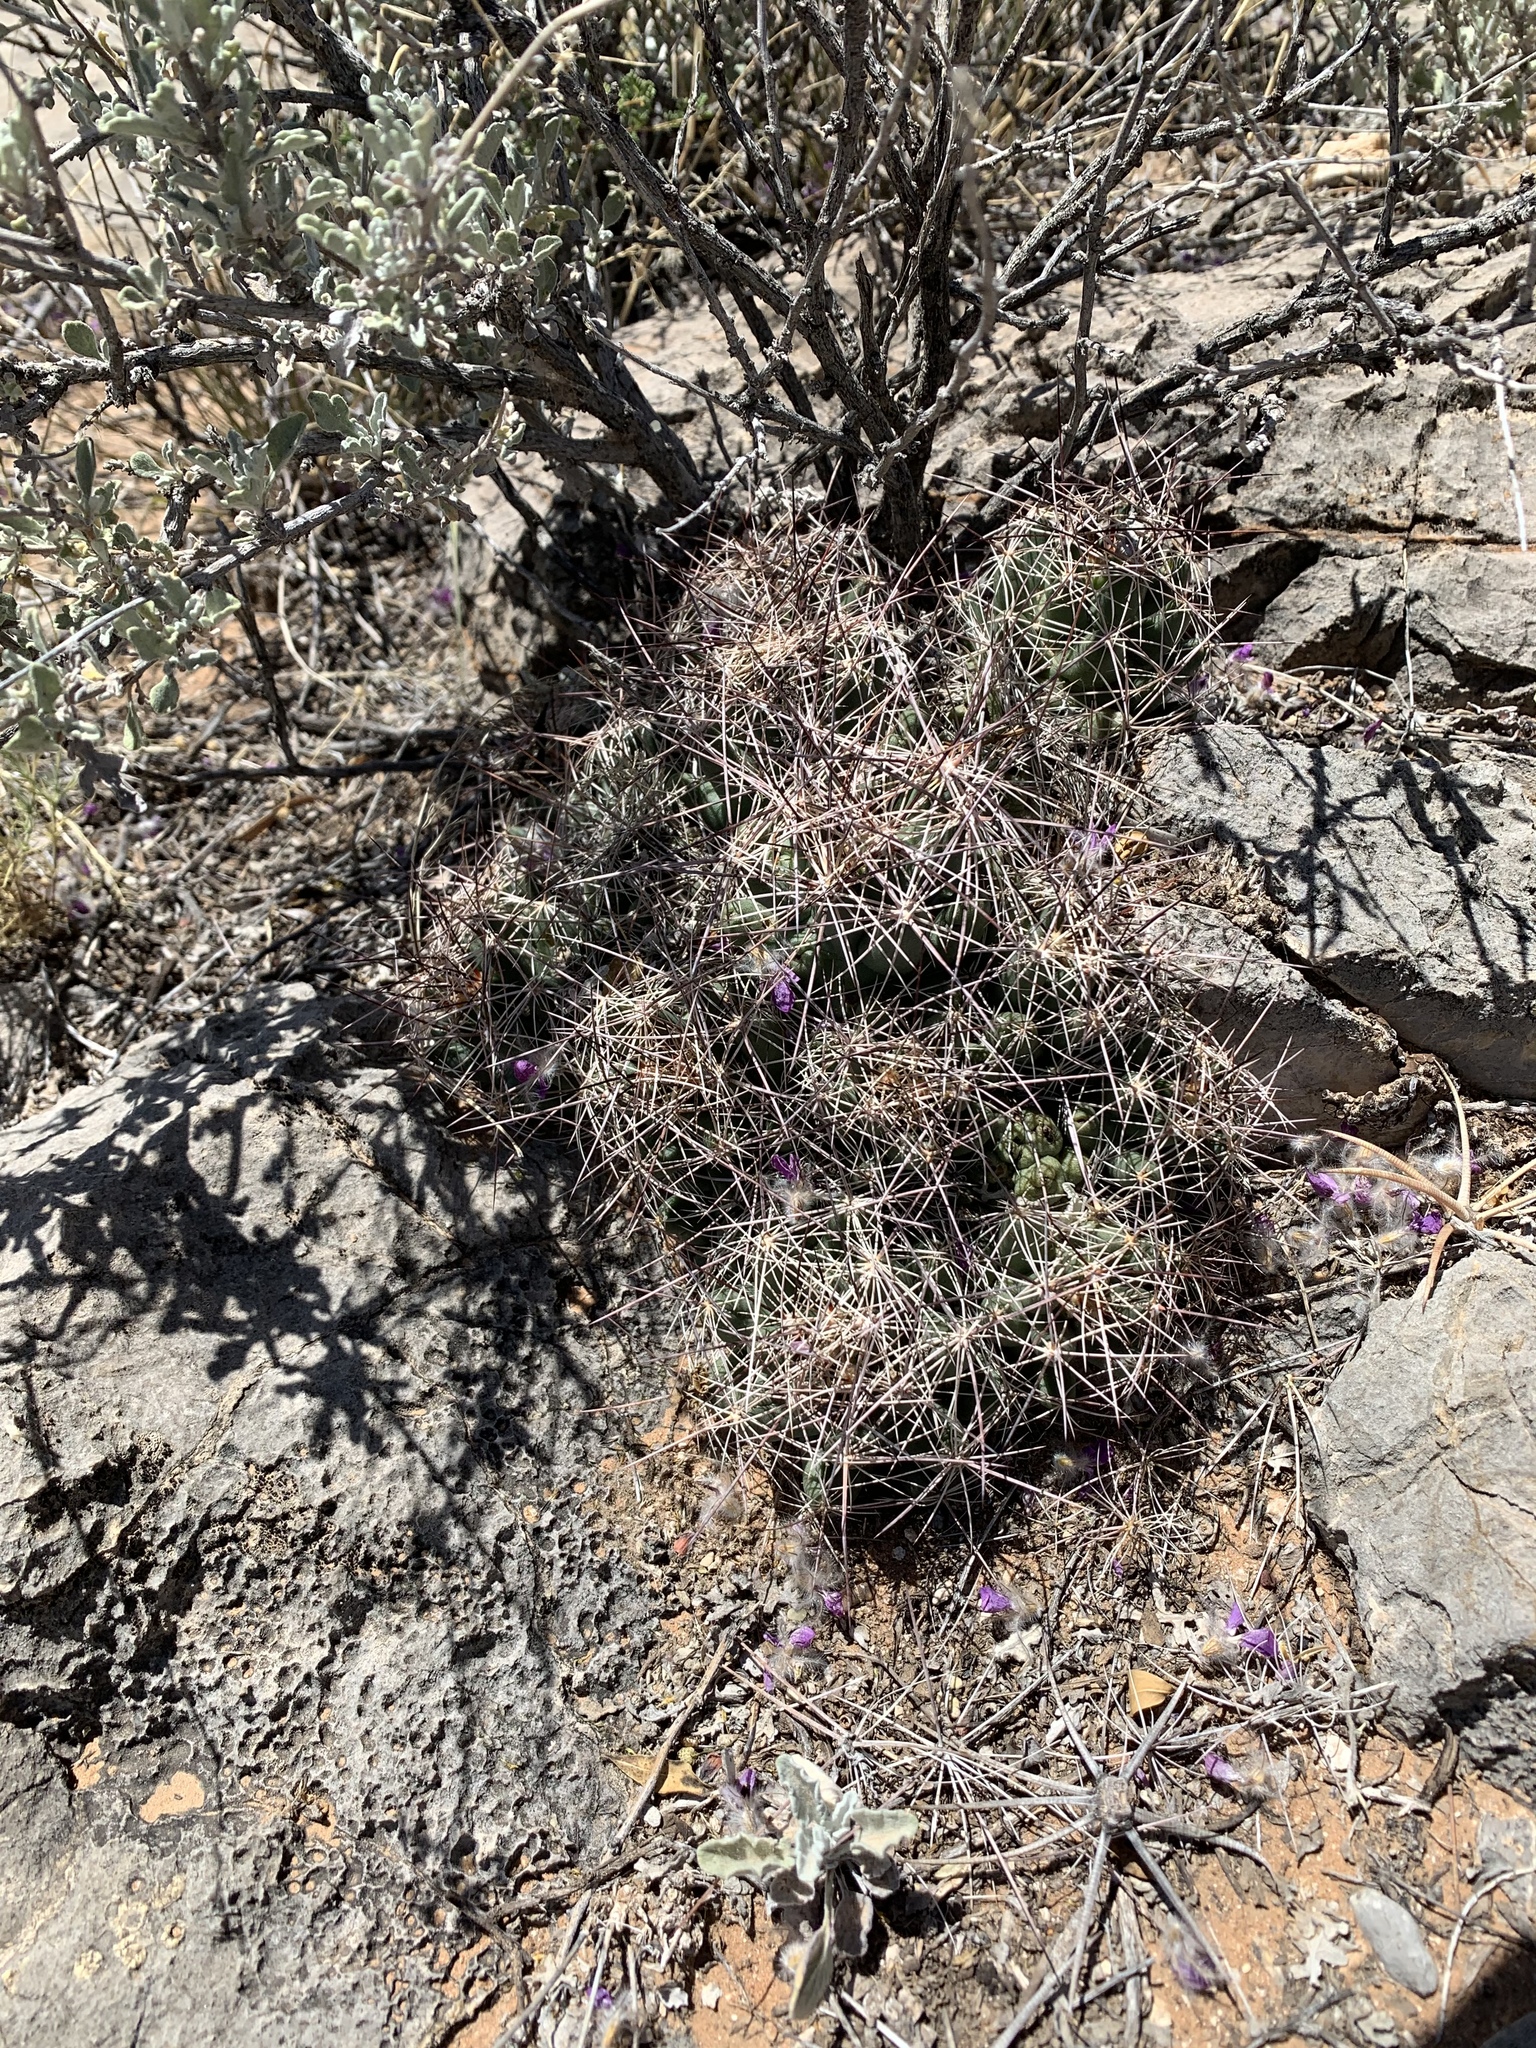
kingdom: Plantae
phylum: Tracheophyta
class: Magnoliopsida
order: Caryophyllales
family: Cactaceae
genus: Coryphantha
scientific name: Coryphantha macromeris
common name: Nipple beehive cactus
